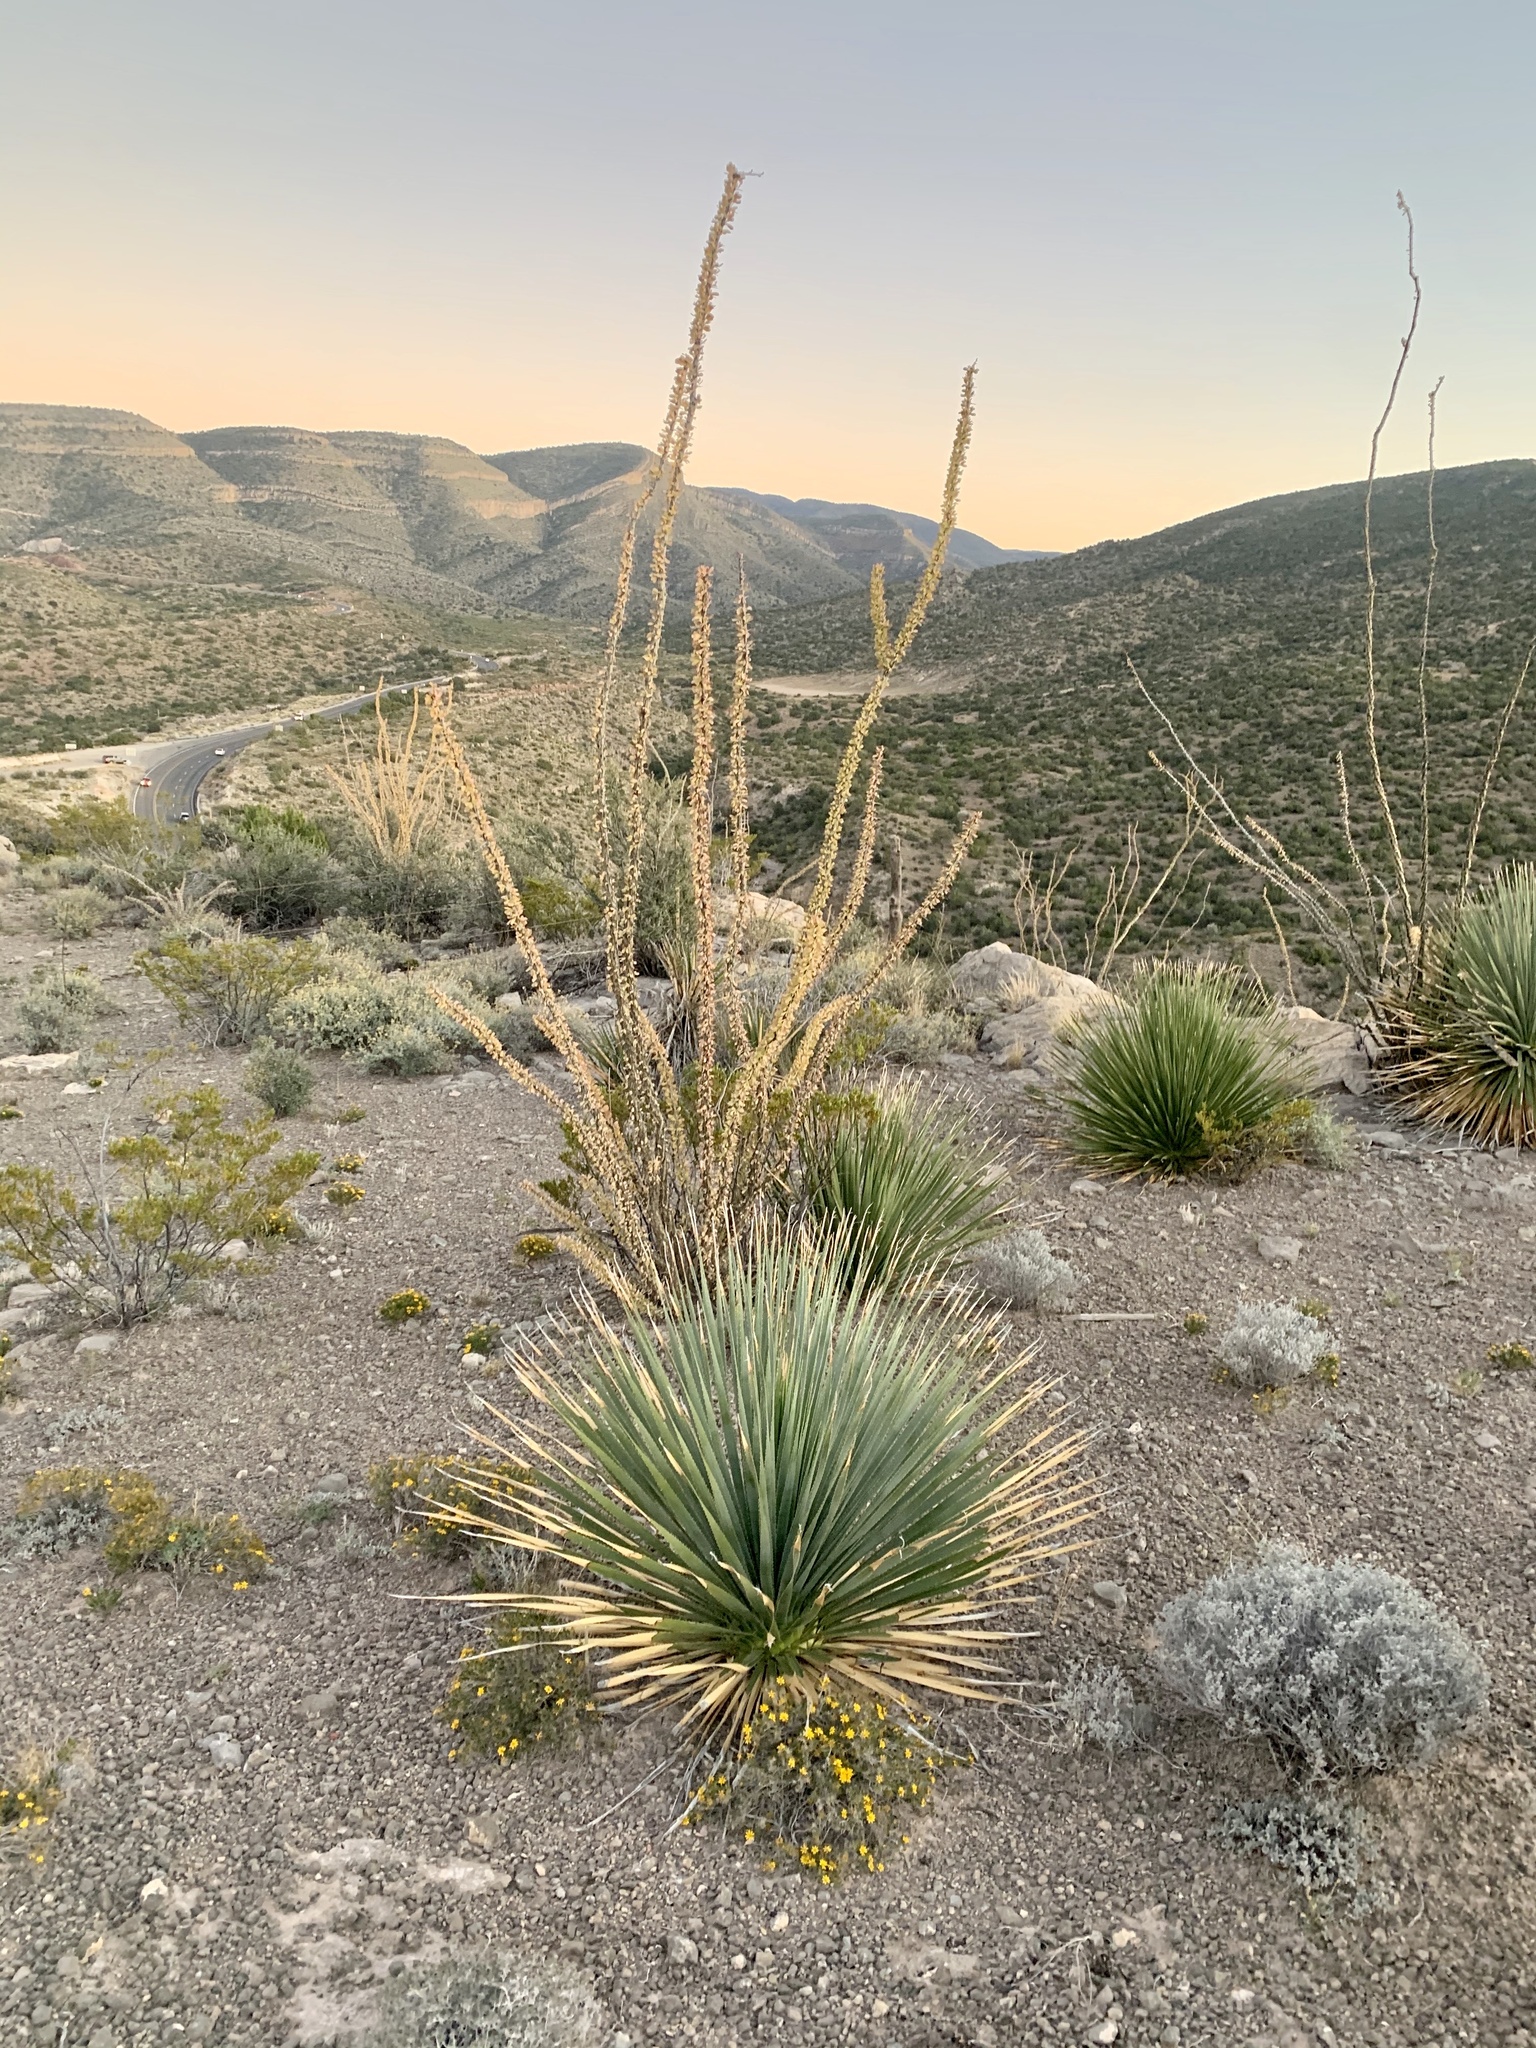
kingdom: Plantae
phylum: Tracheophyta
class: Magnoliopsida
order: Ericales
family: Fouquieriaceae
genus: Fouquieria
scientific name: Fouquieria splendens
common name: Vine-cactus
